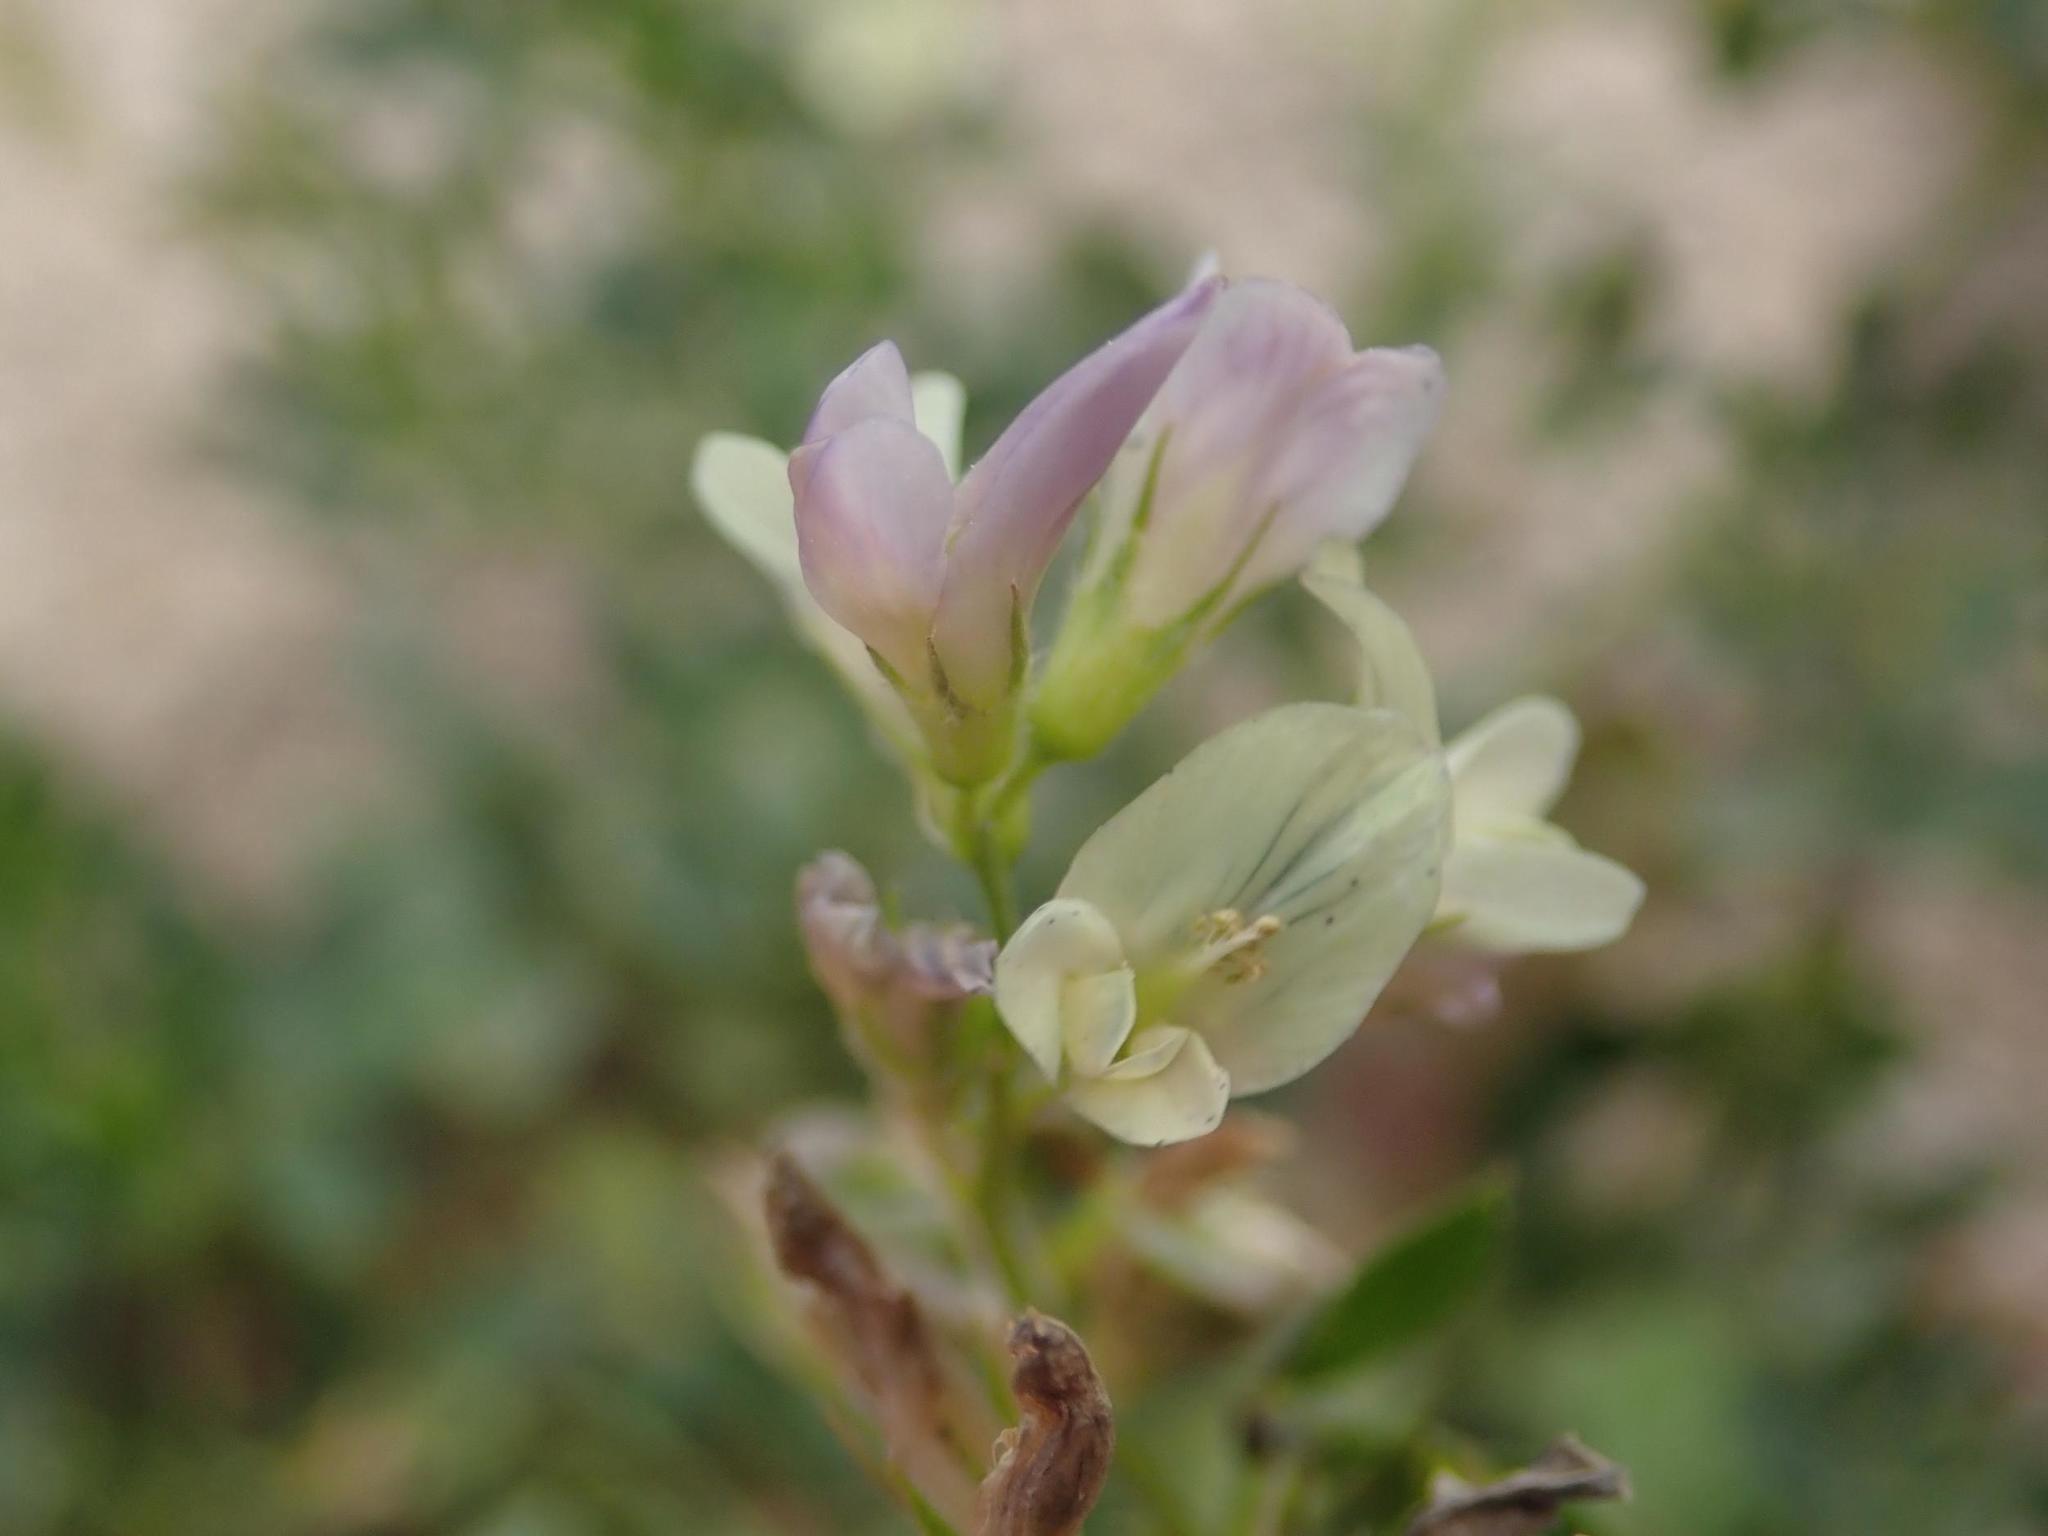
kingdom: Plantae
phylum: Tracheophyta
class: Magnoliopsida
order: Fabales
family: Fabaceae
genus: Medicago
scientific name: Medicago varia
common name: Sand lucerne
